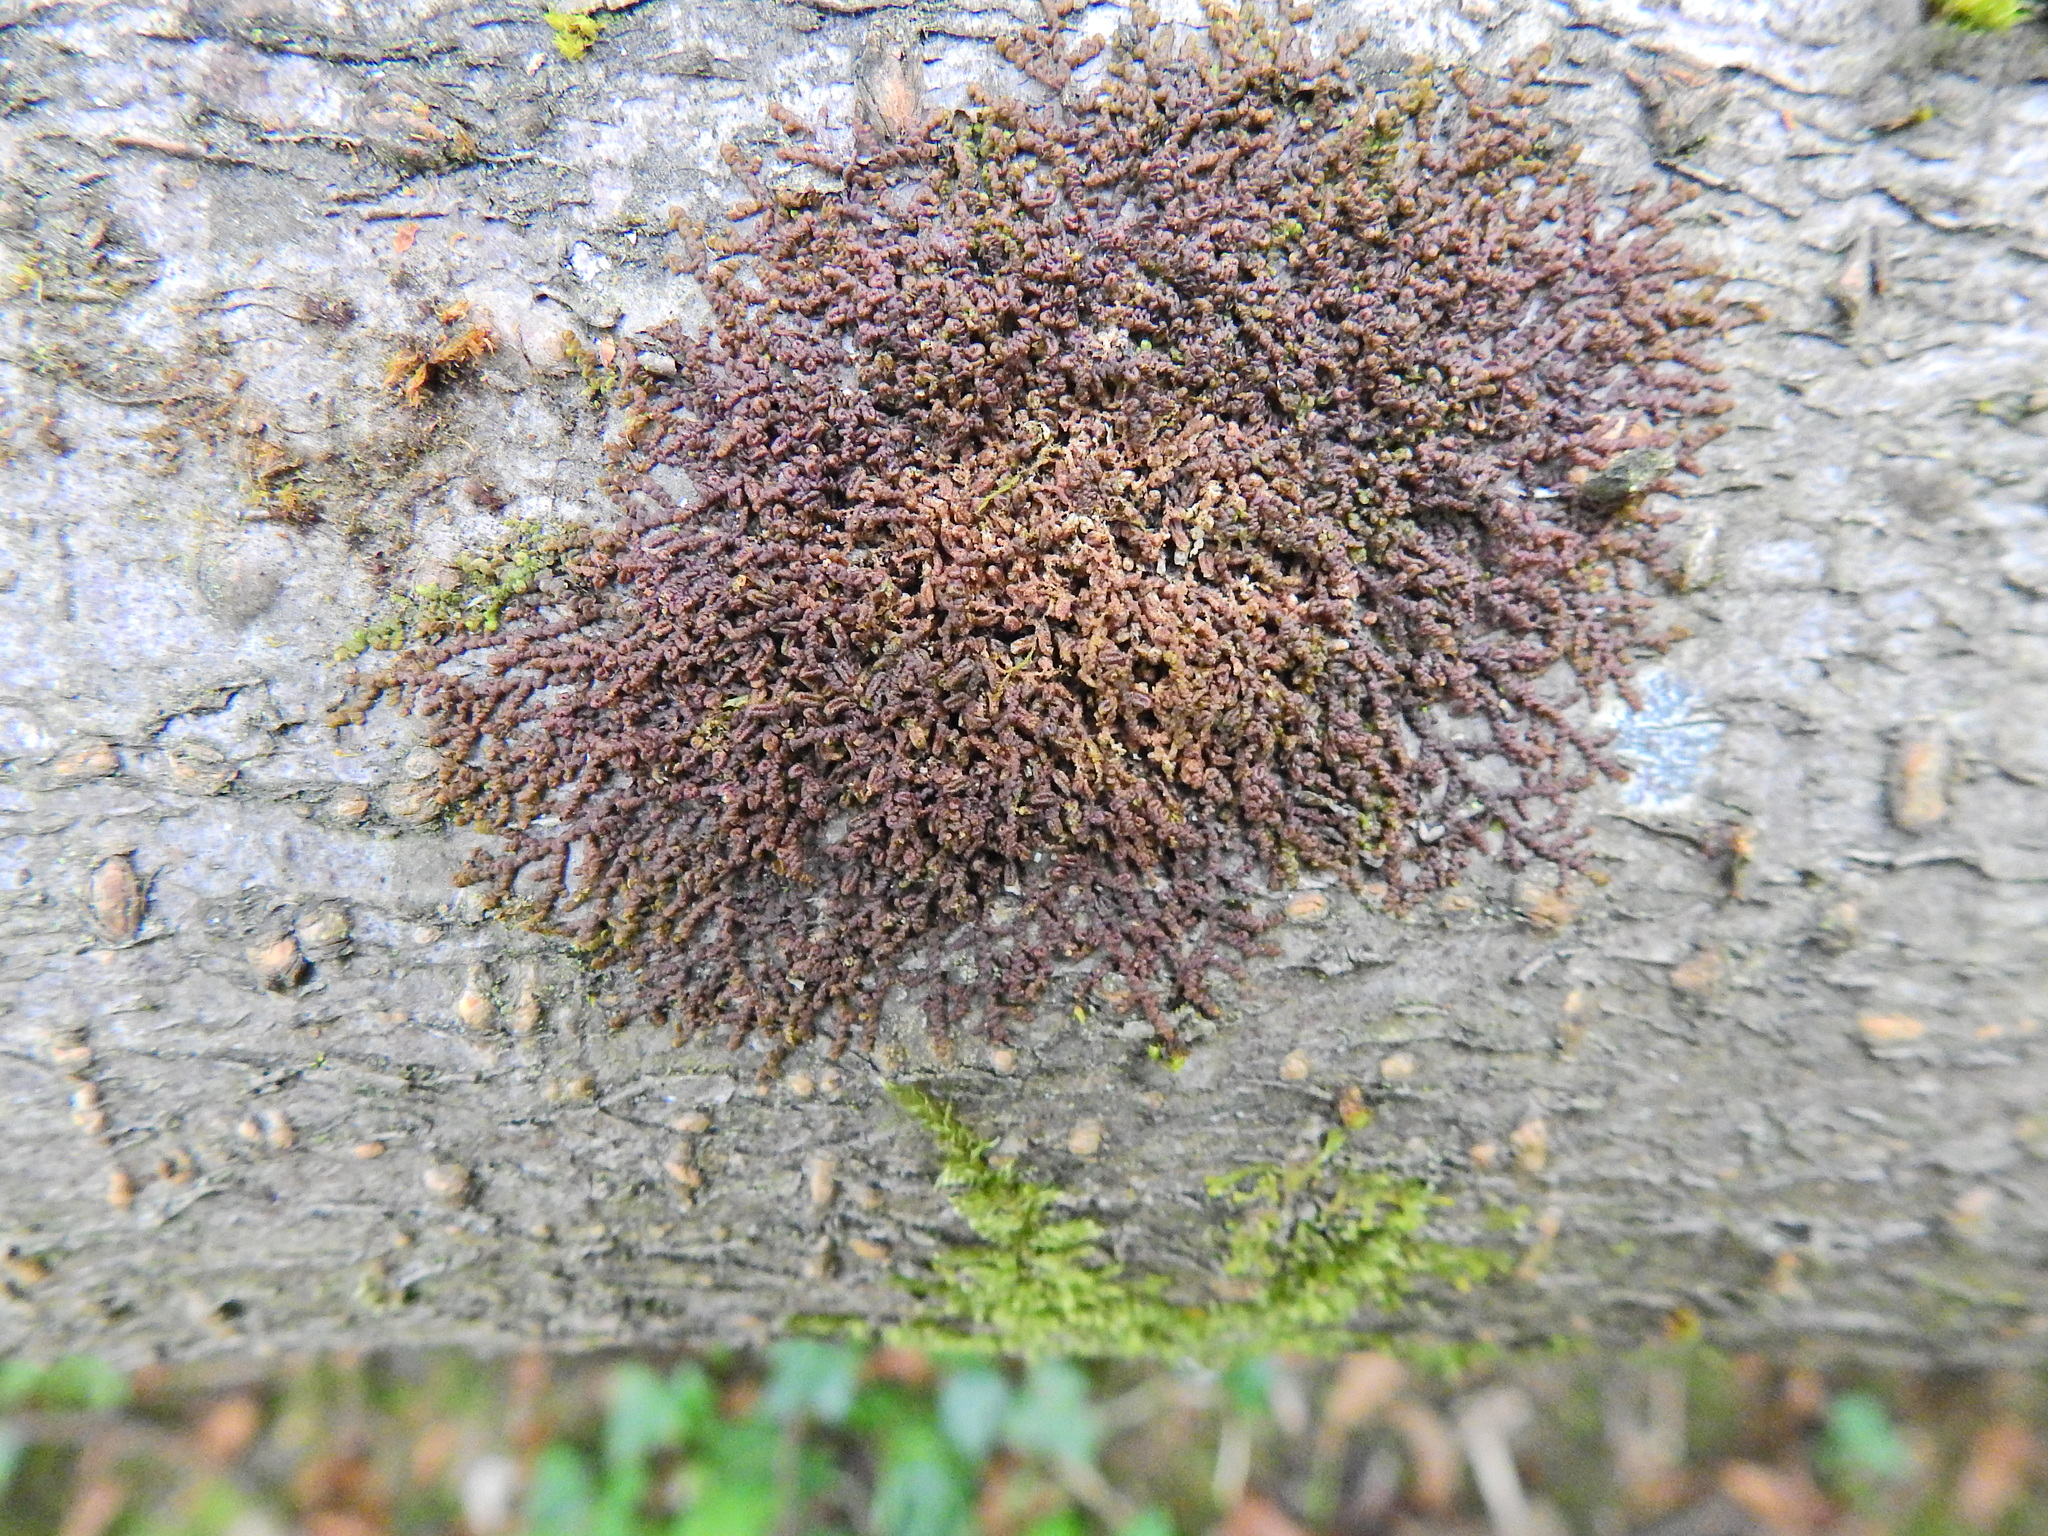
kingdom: Plantae
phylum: Marchantiophyta
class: Jungermanniopsida
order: Porellales
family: Frullaniaceae
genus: Frullania
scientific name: Frullania dilatata
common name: Dilated scalewort
